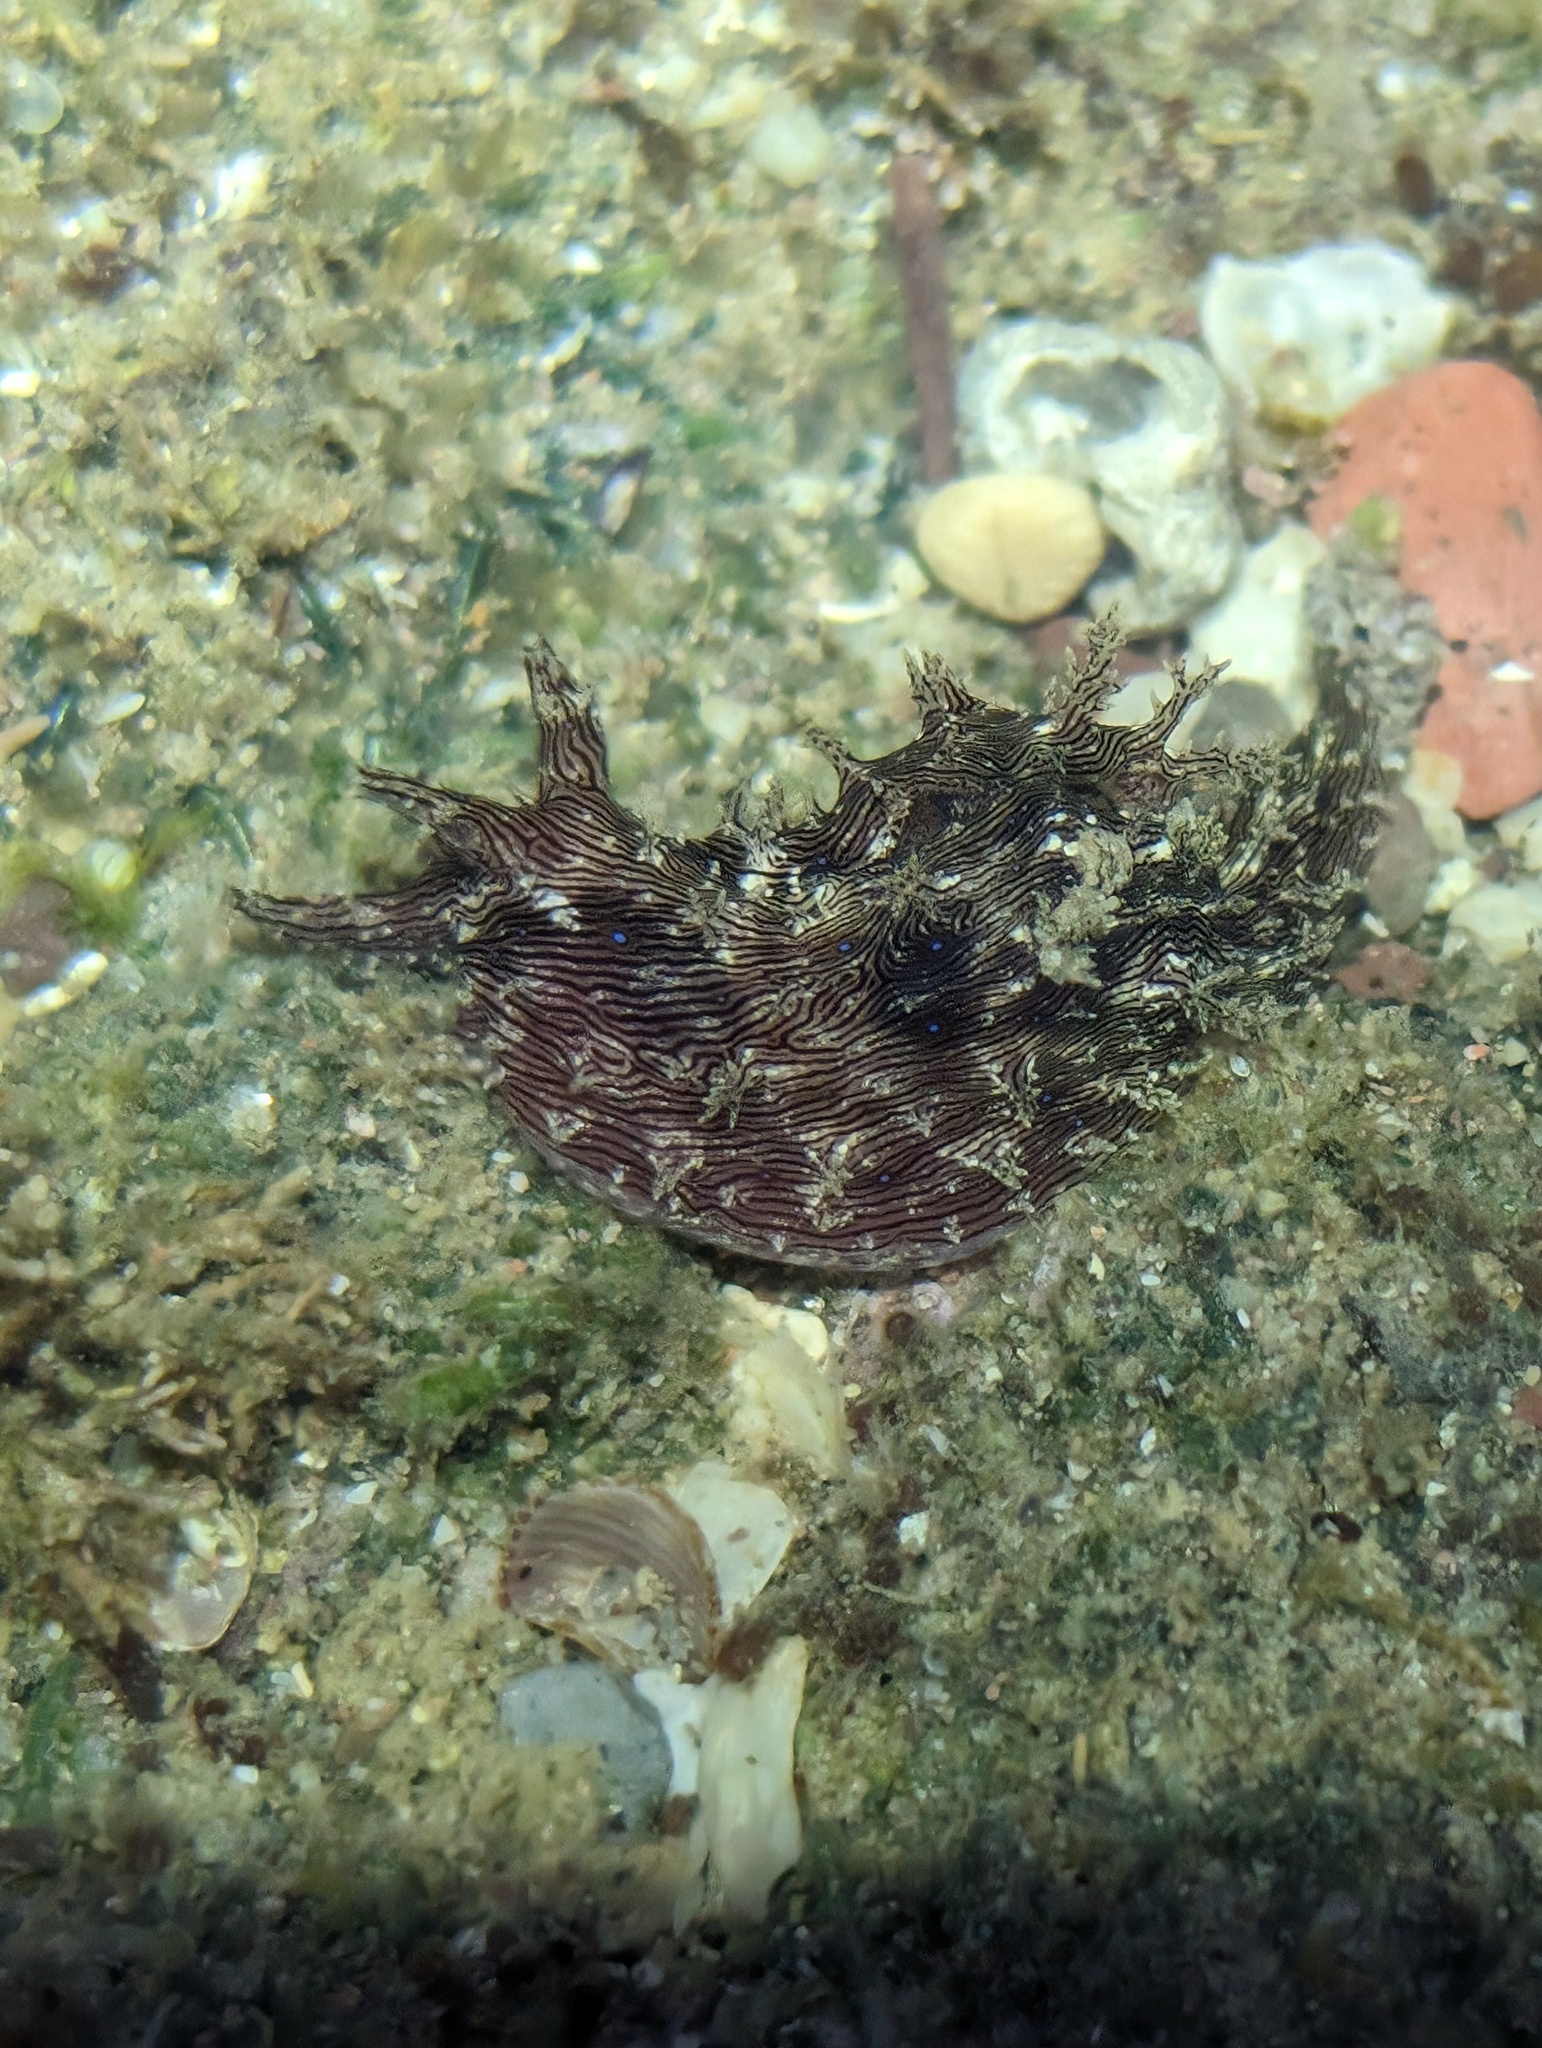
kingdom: Animalia
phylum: Mollusca
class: Gastropoda
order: Aplysiida
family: Aplysiidae
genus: Stylocheilus
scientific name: Stylocheilus rickettsi
